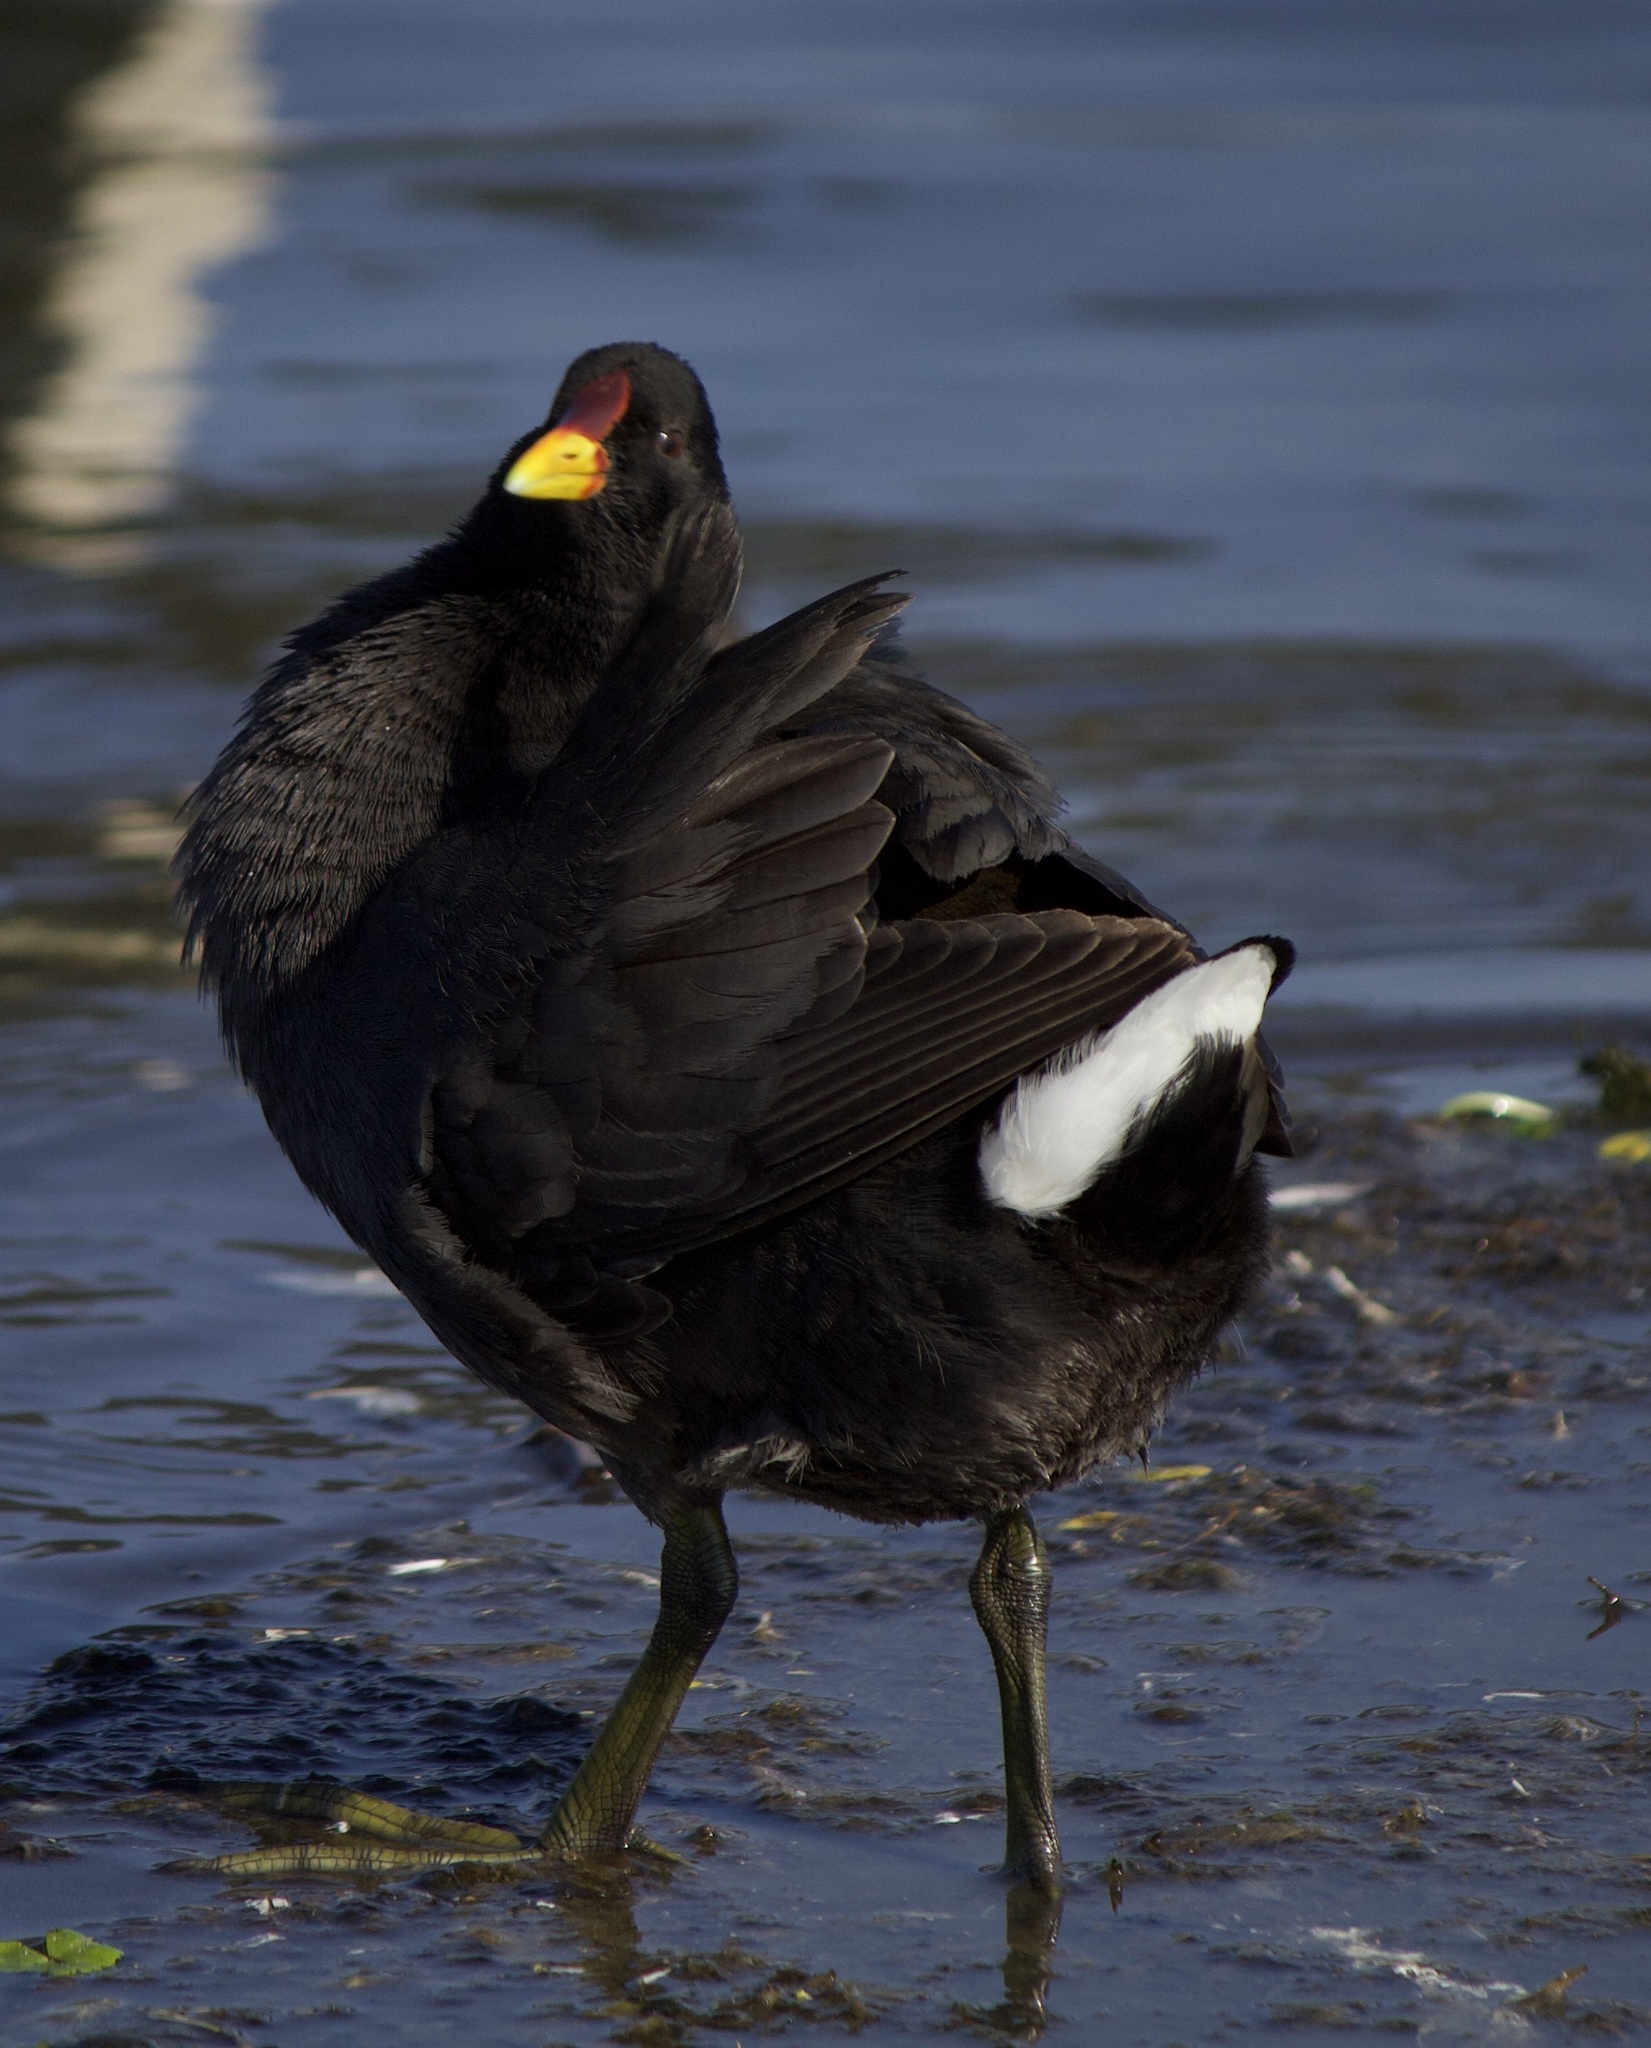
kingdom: Animalia
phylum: Chordata
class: Aves
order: Gruiformes
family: Rallidae
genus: Fulica
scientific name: Fulica rufifrons
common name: Red-fronted coot
